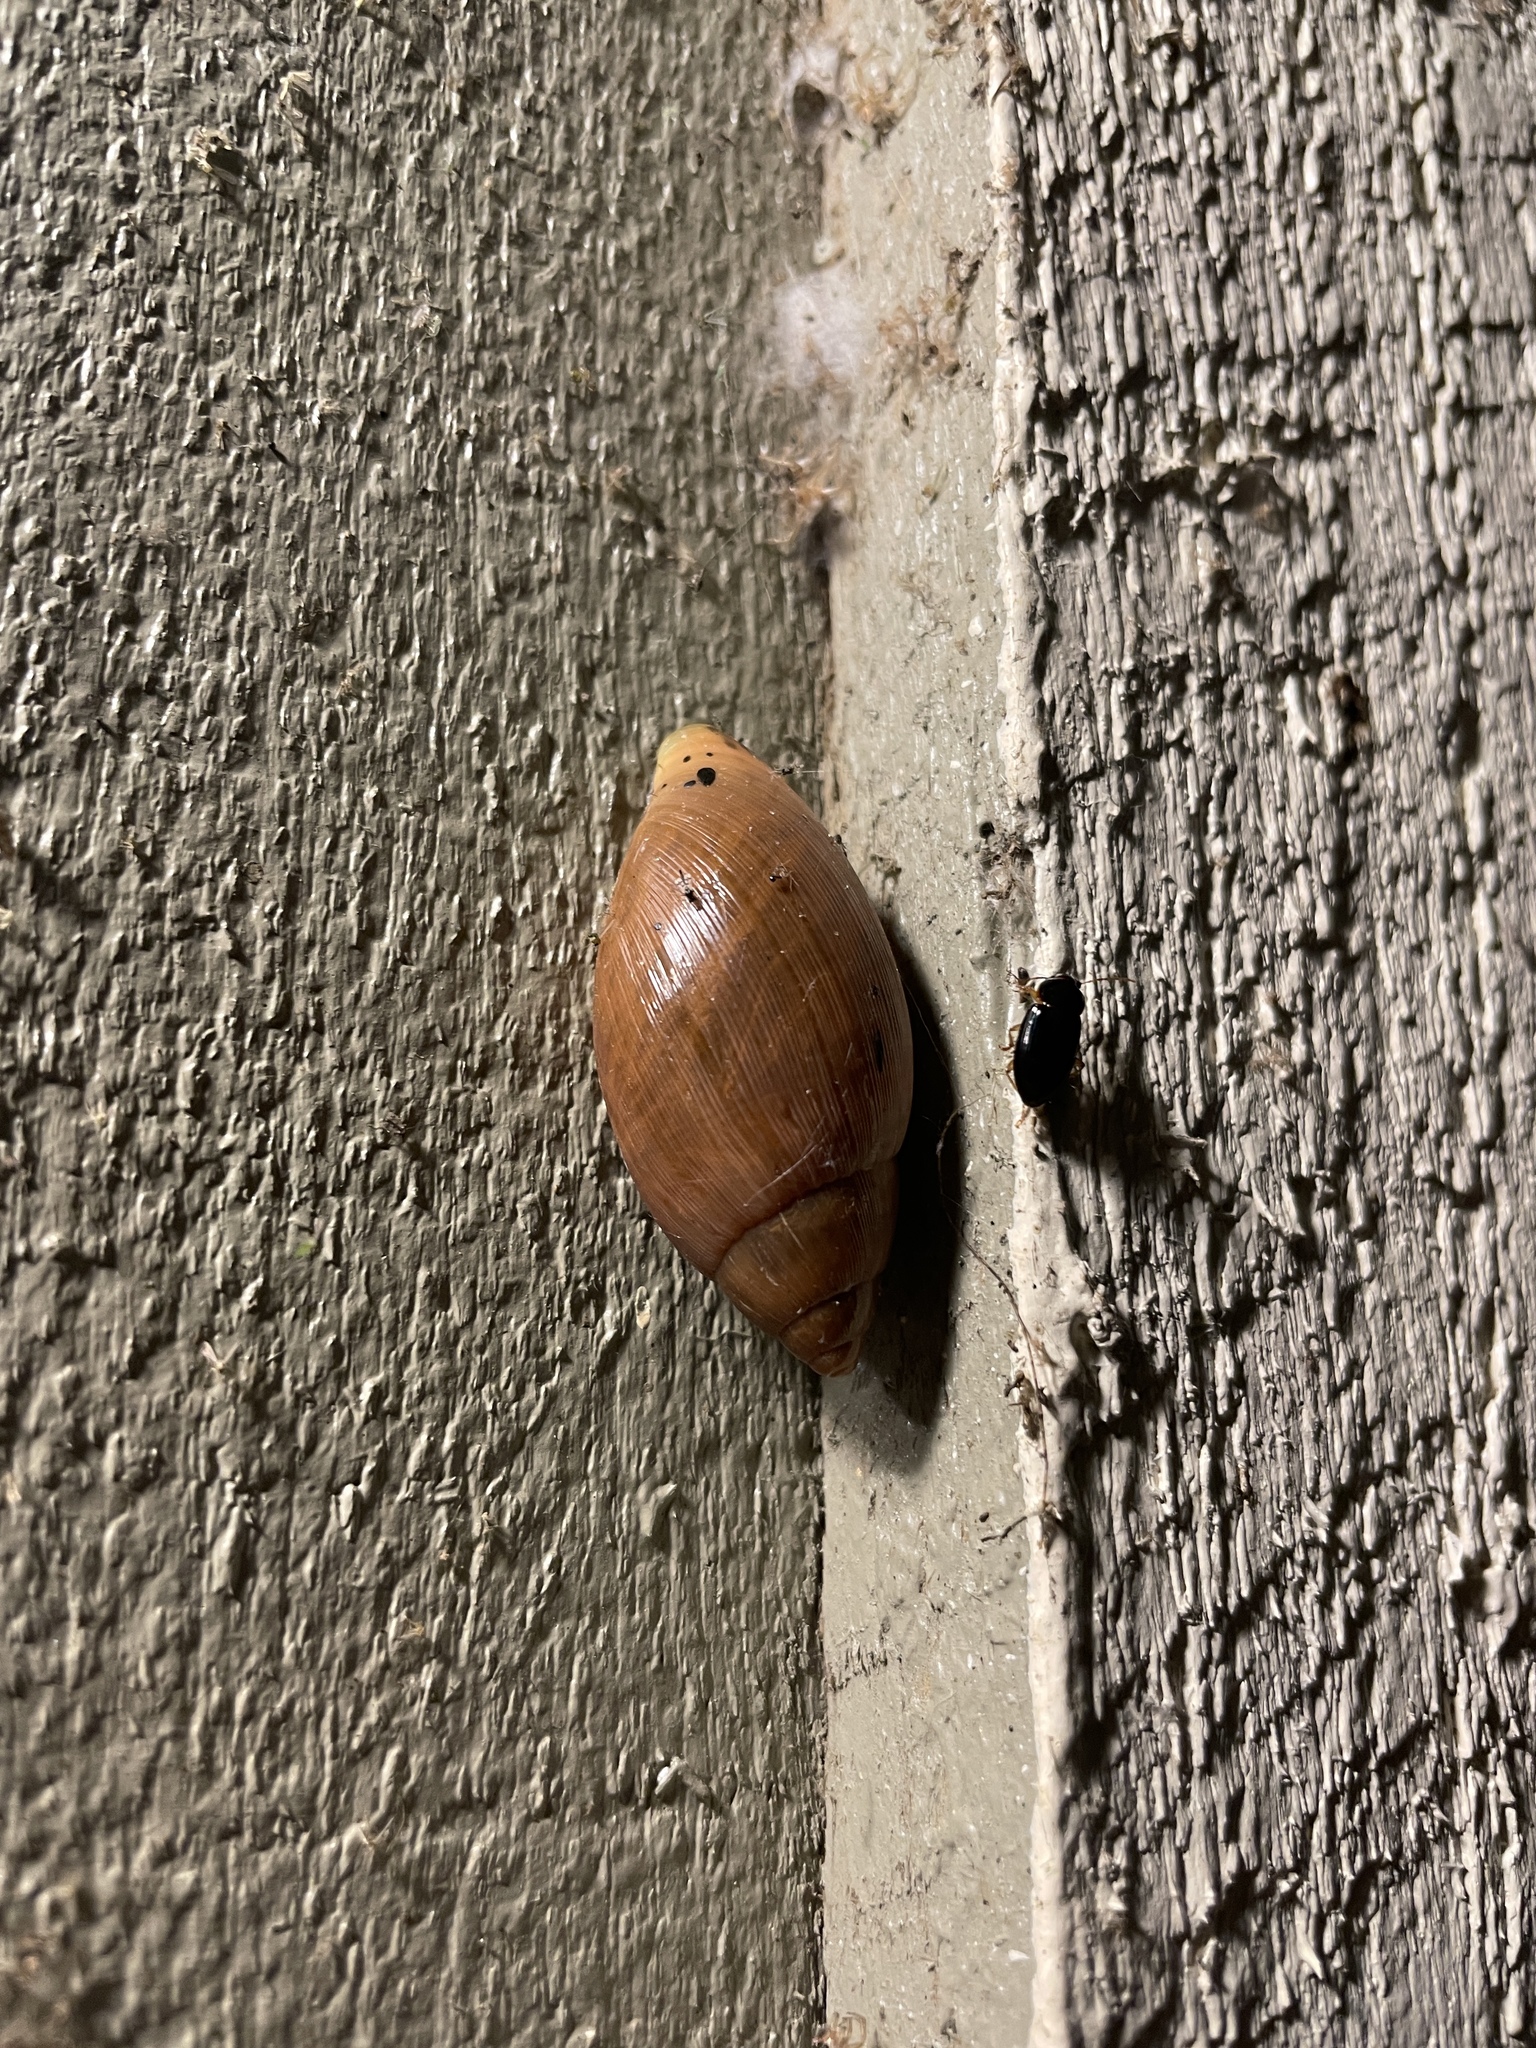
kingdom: Animalia
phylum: Mollusca
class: Gastropoda
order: Stylommatophora
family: Spiraxidae
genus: Euglandina
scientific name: Euglandina rosea
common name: Rosy wolfsnail
